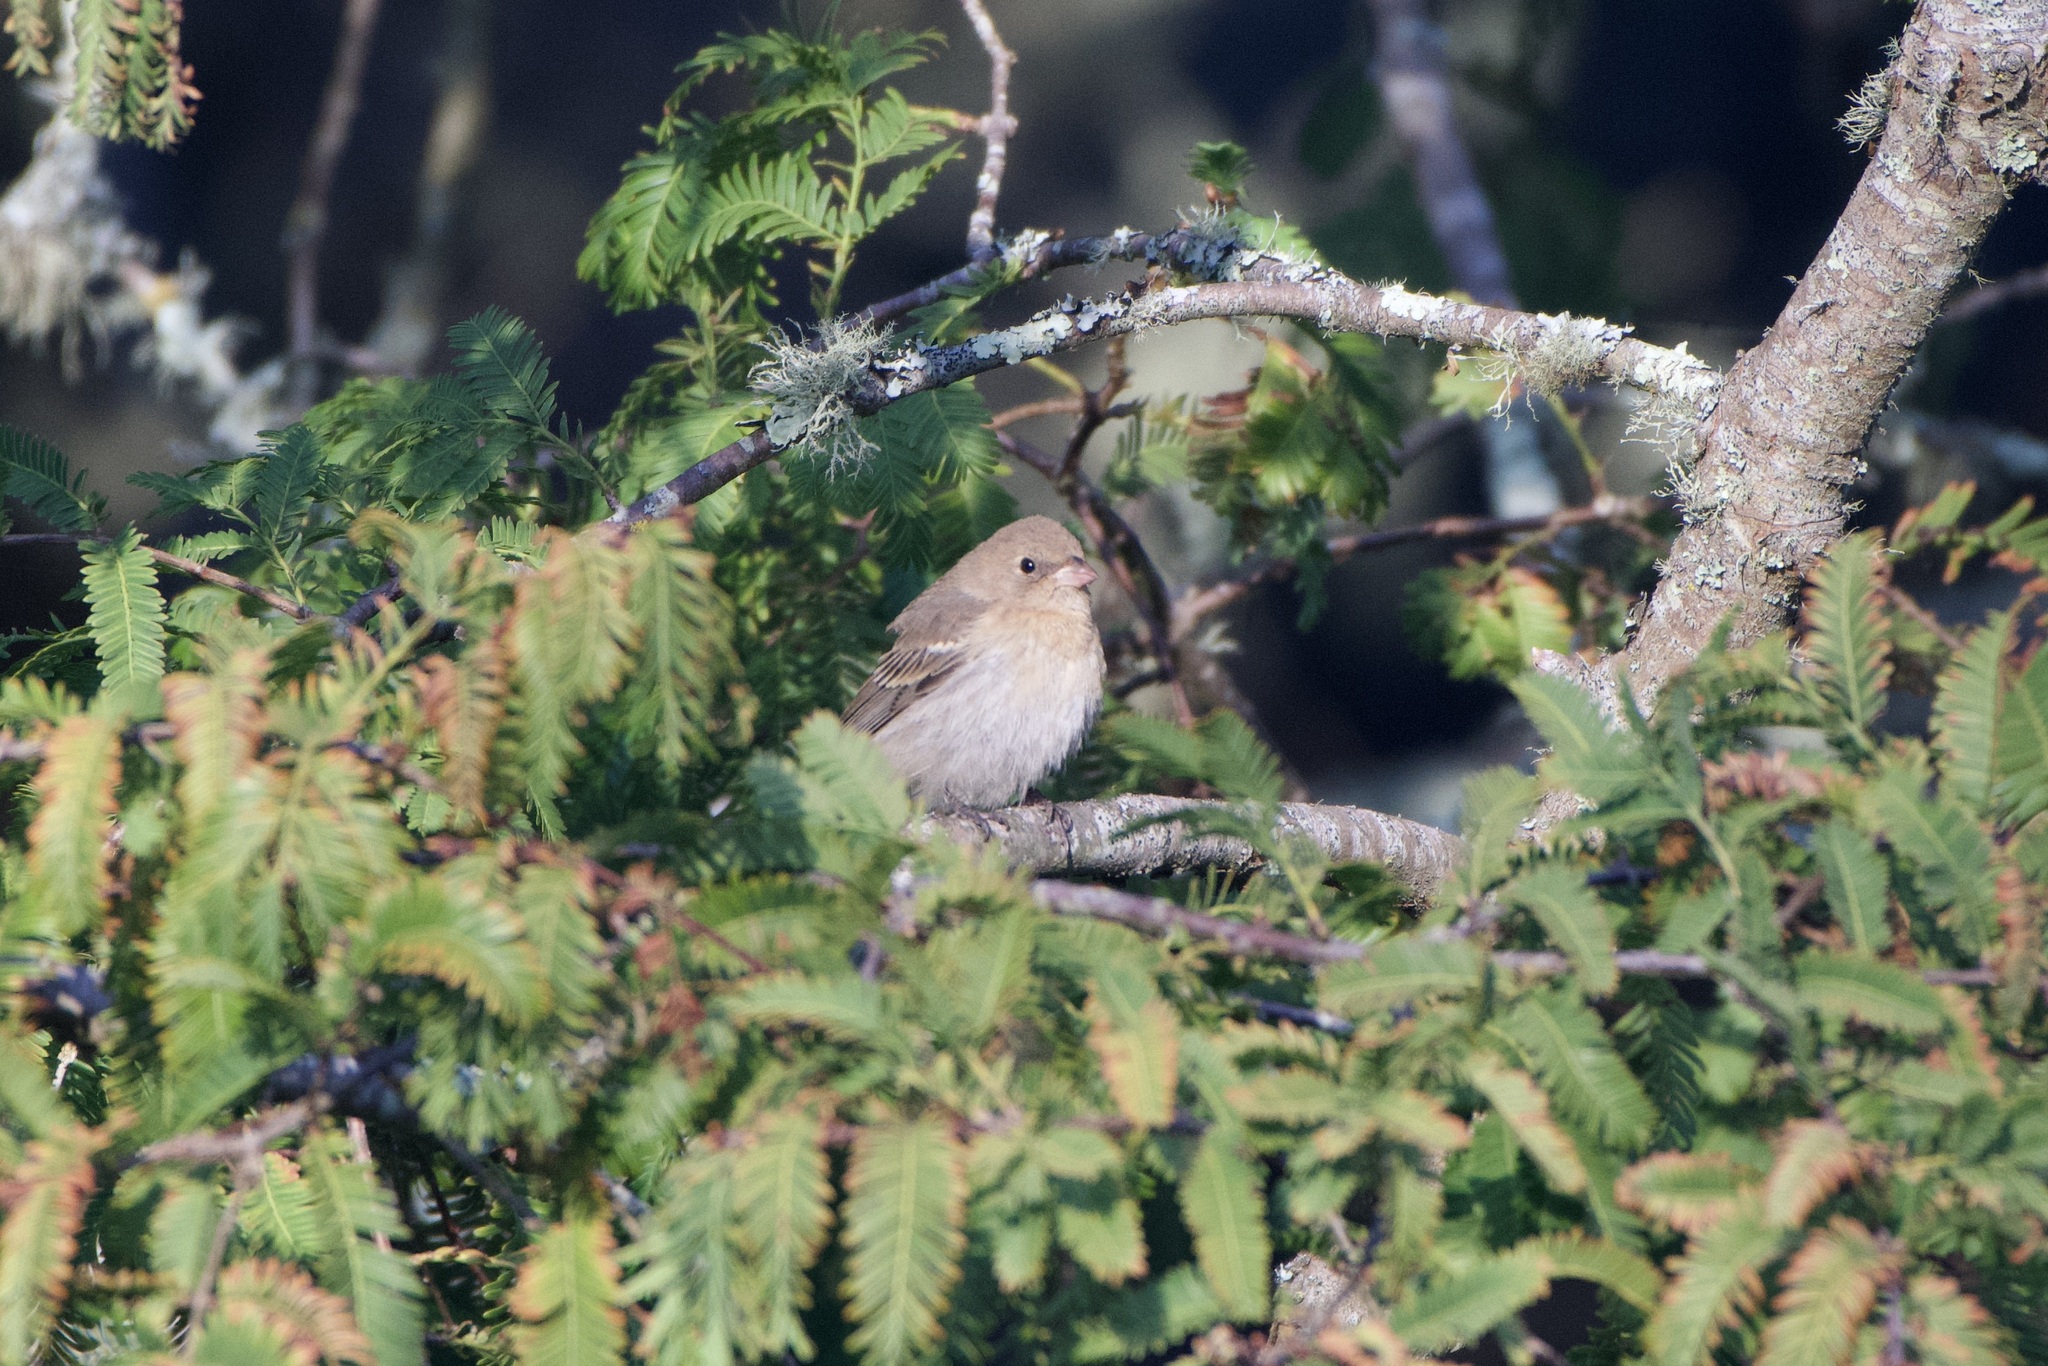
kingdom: Animalia
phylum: Chordata
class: Aves
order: Passeriformes
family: Cardinalidae
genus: Passerina
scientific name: Passerina amoena
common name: Lazuli bunting
